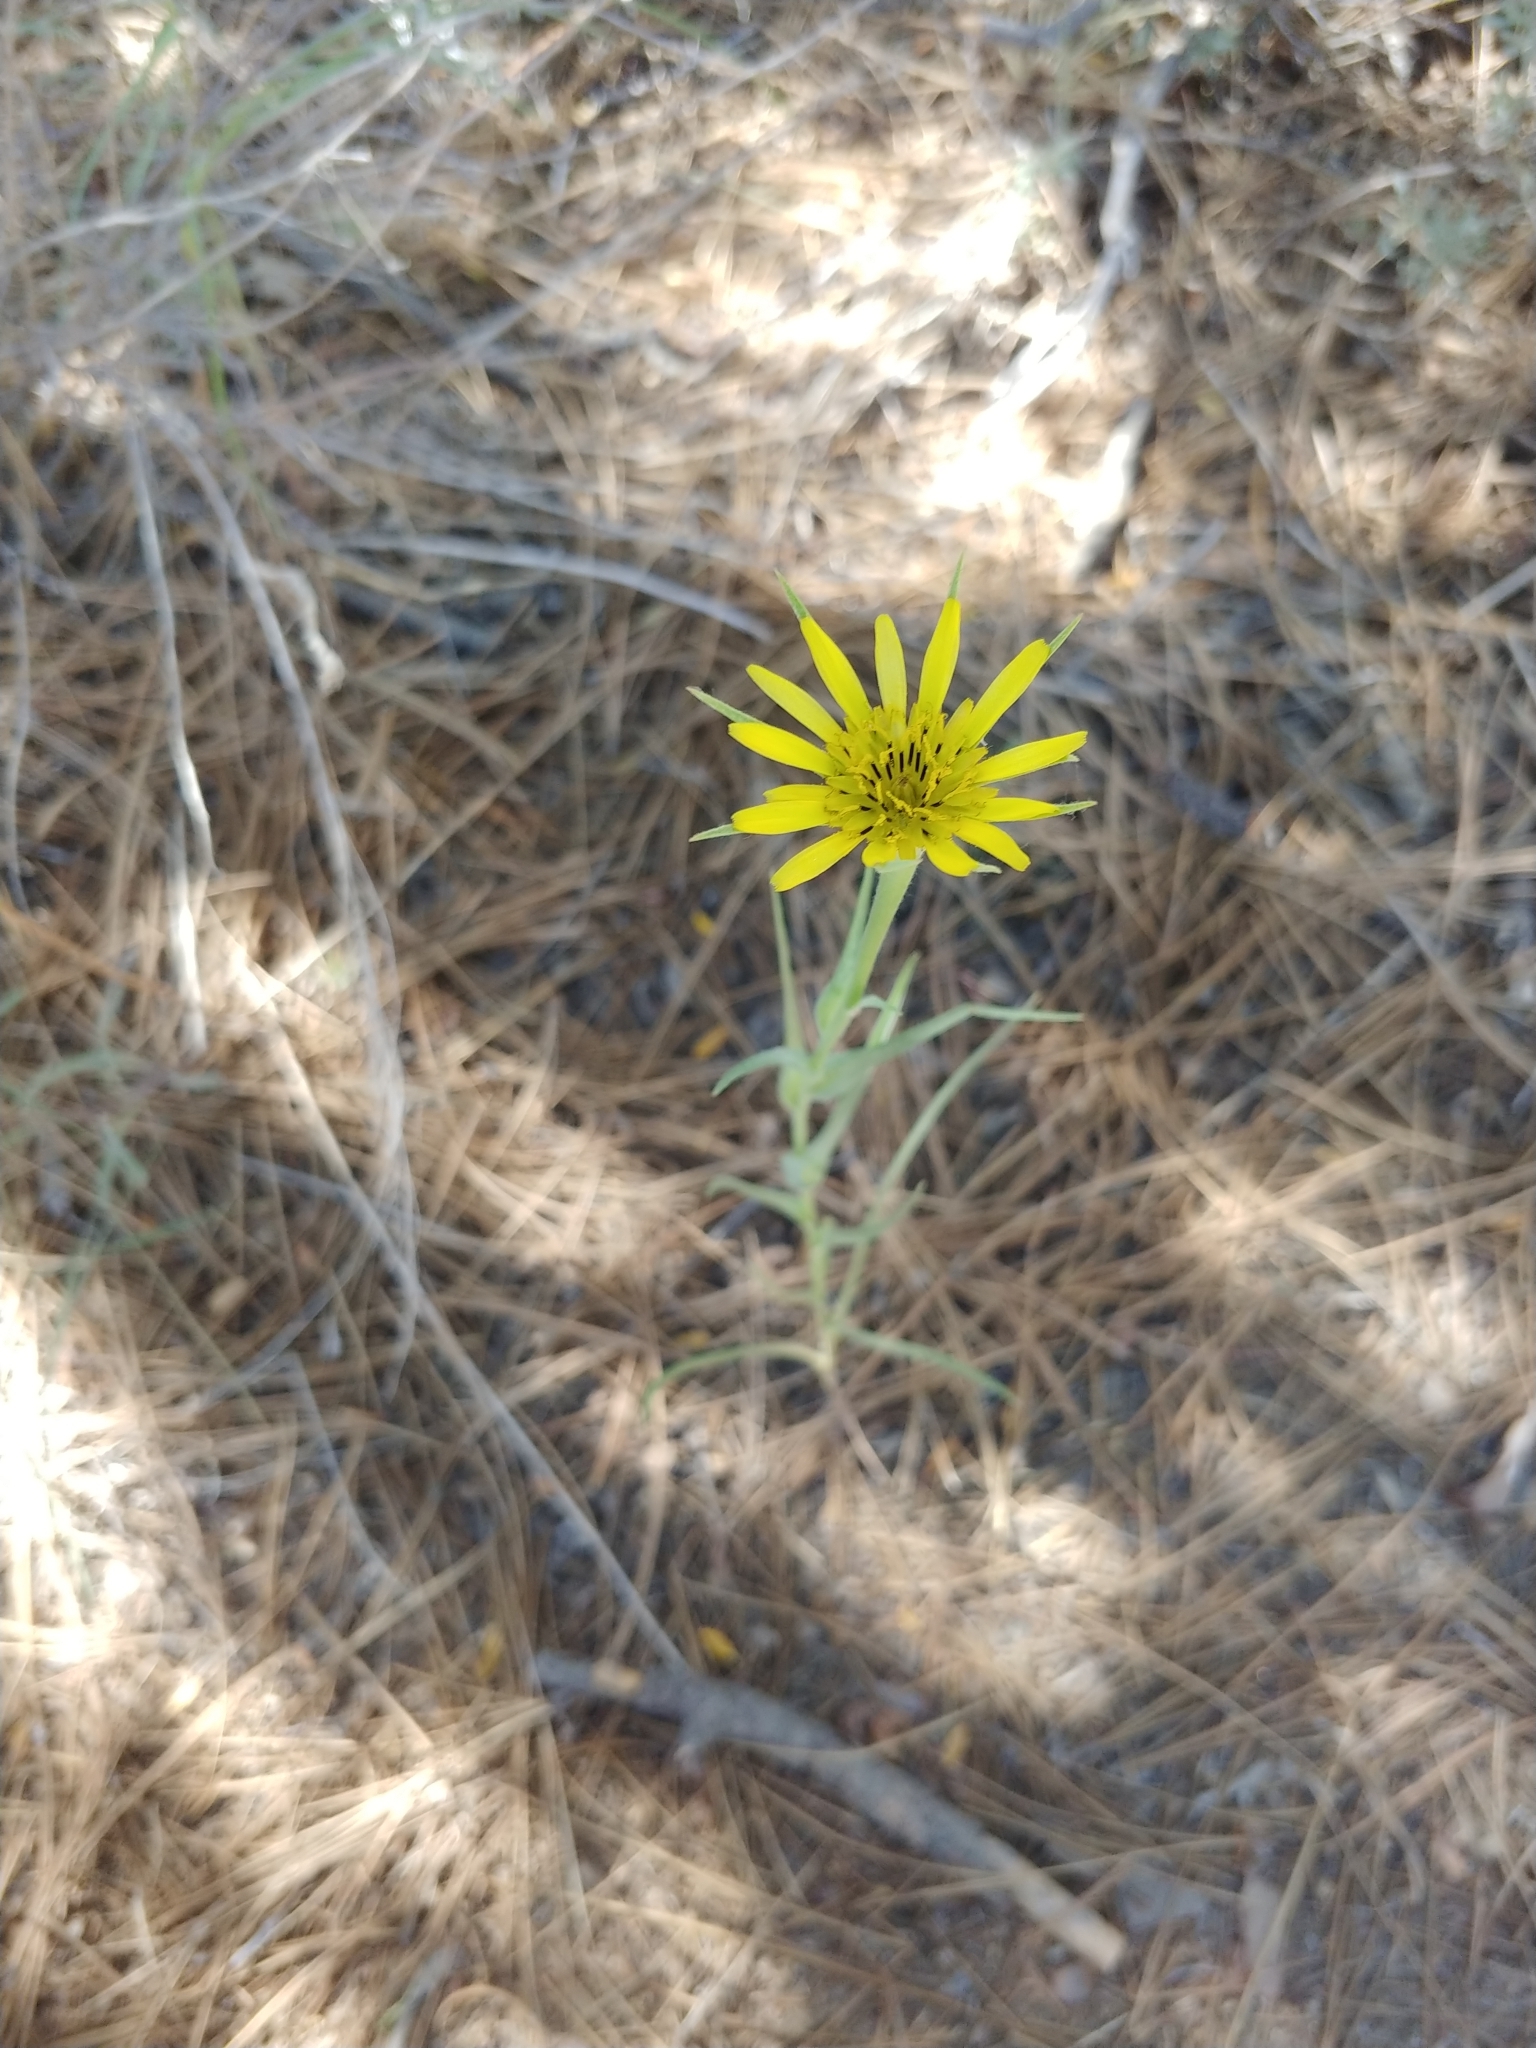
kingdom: Plantae
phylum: Tracheophyta
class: Magnoliopsida
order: Asterales
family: Asteraceae
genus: Tragopogon
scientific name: Tragopogon dubius
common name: Yellow salsify
